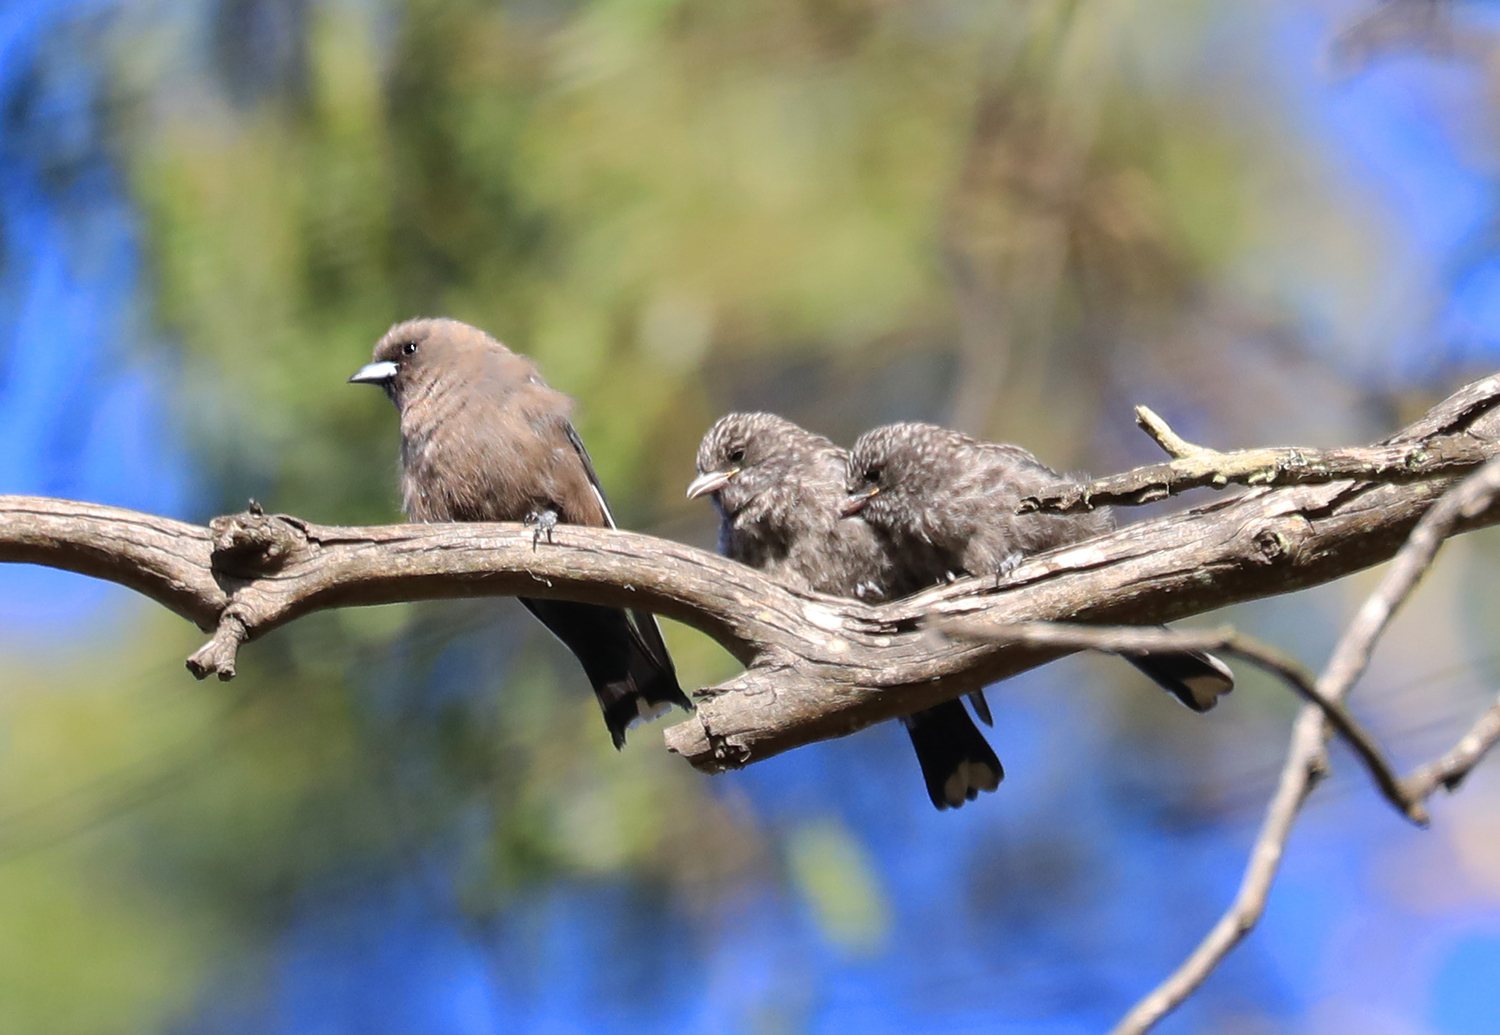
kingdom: Animalia
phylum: Chordata
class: Aves
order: Passeriformes
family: Artamidae
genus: Artamus
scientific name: Artamus cyanopterus
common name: Dusky woodswallow
